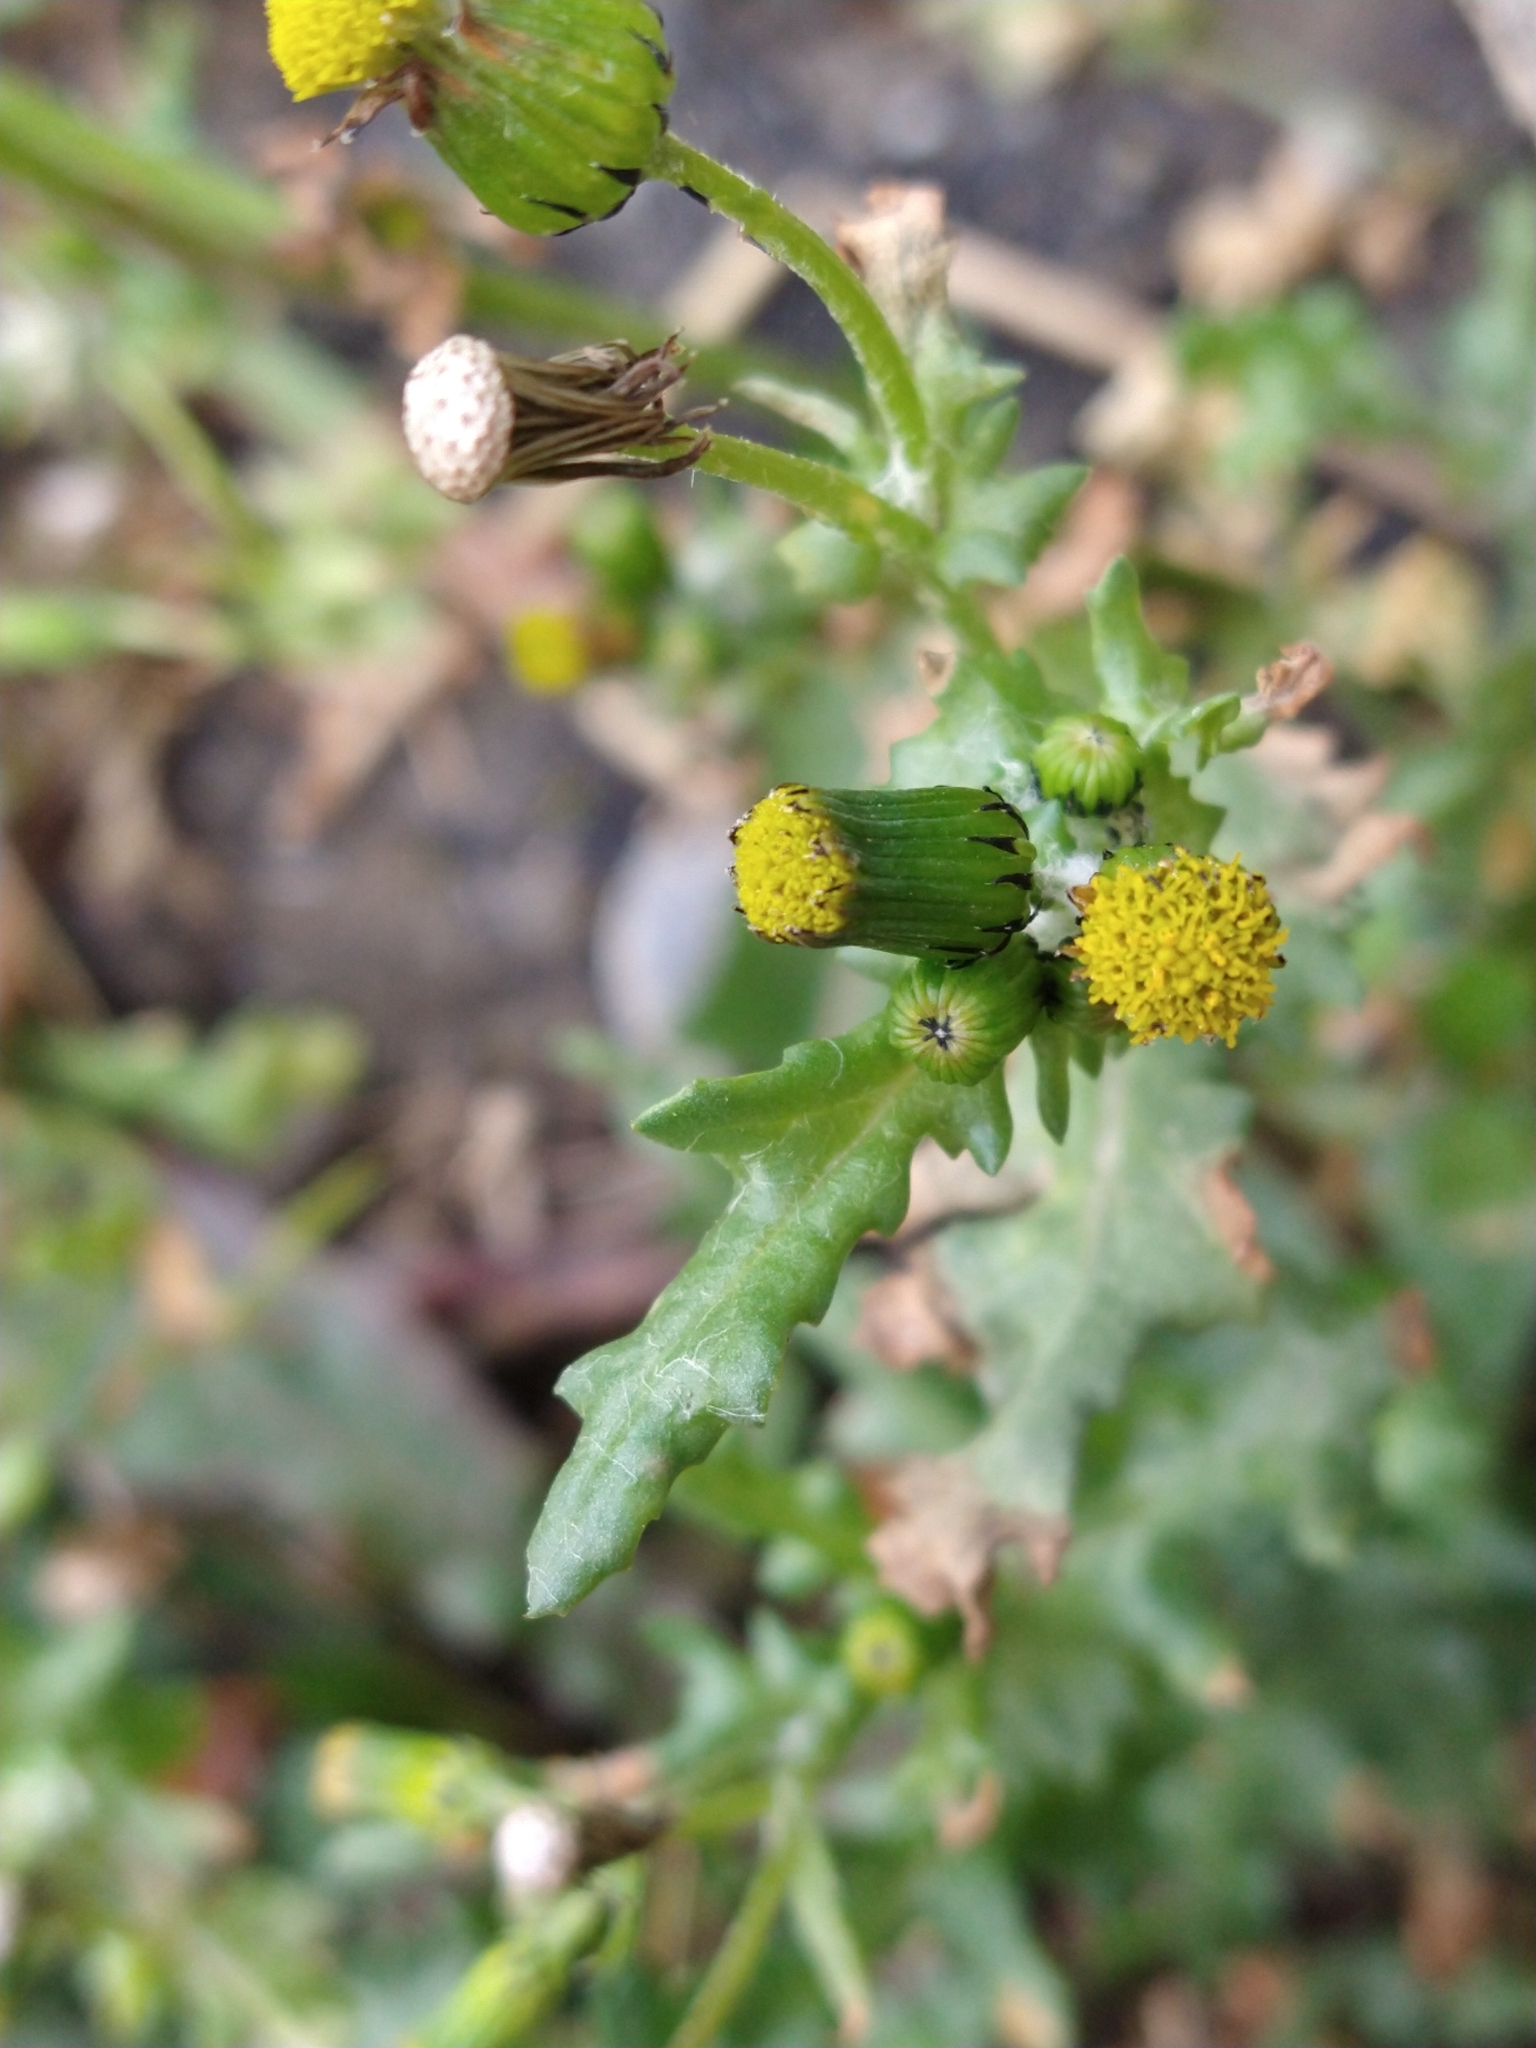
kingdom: Plantae
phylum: Tracheophyta
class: Magnoliopsida
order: Asterales
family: Asteraceae
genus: Senecio
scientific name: Senecio vulgaris
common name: Old-man-in-the-spring
